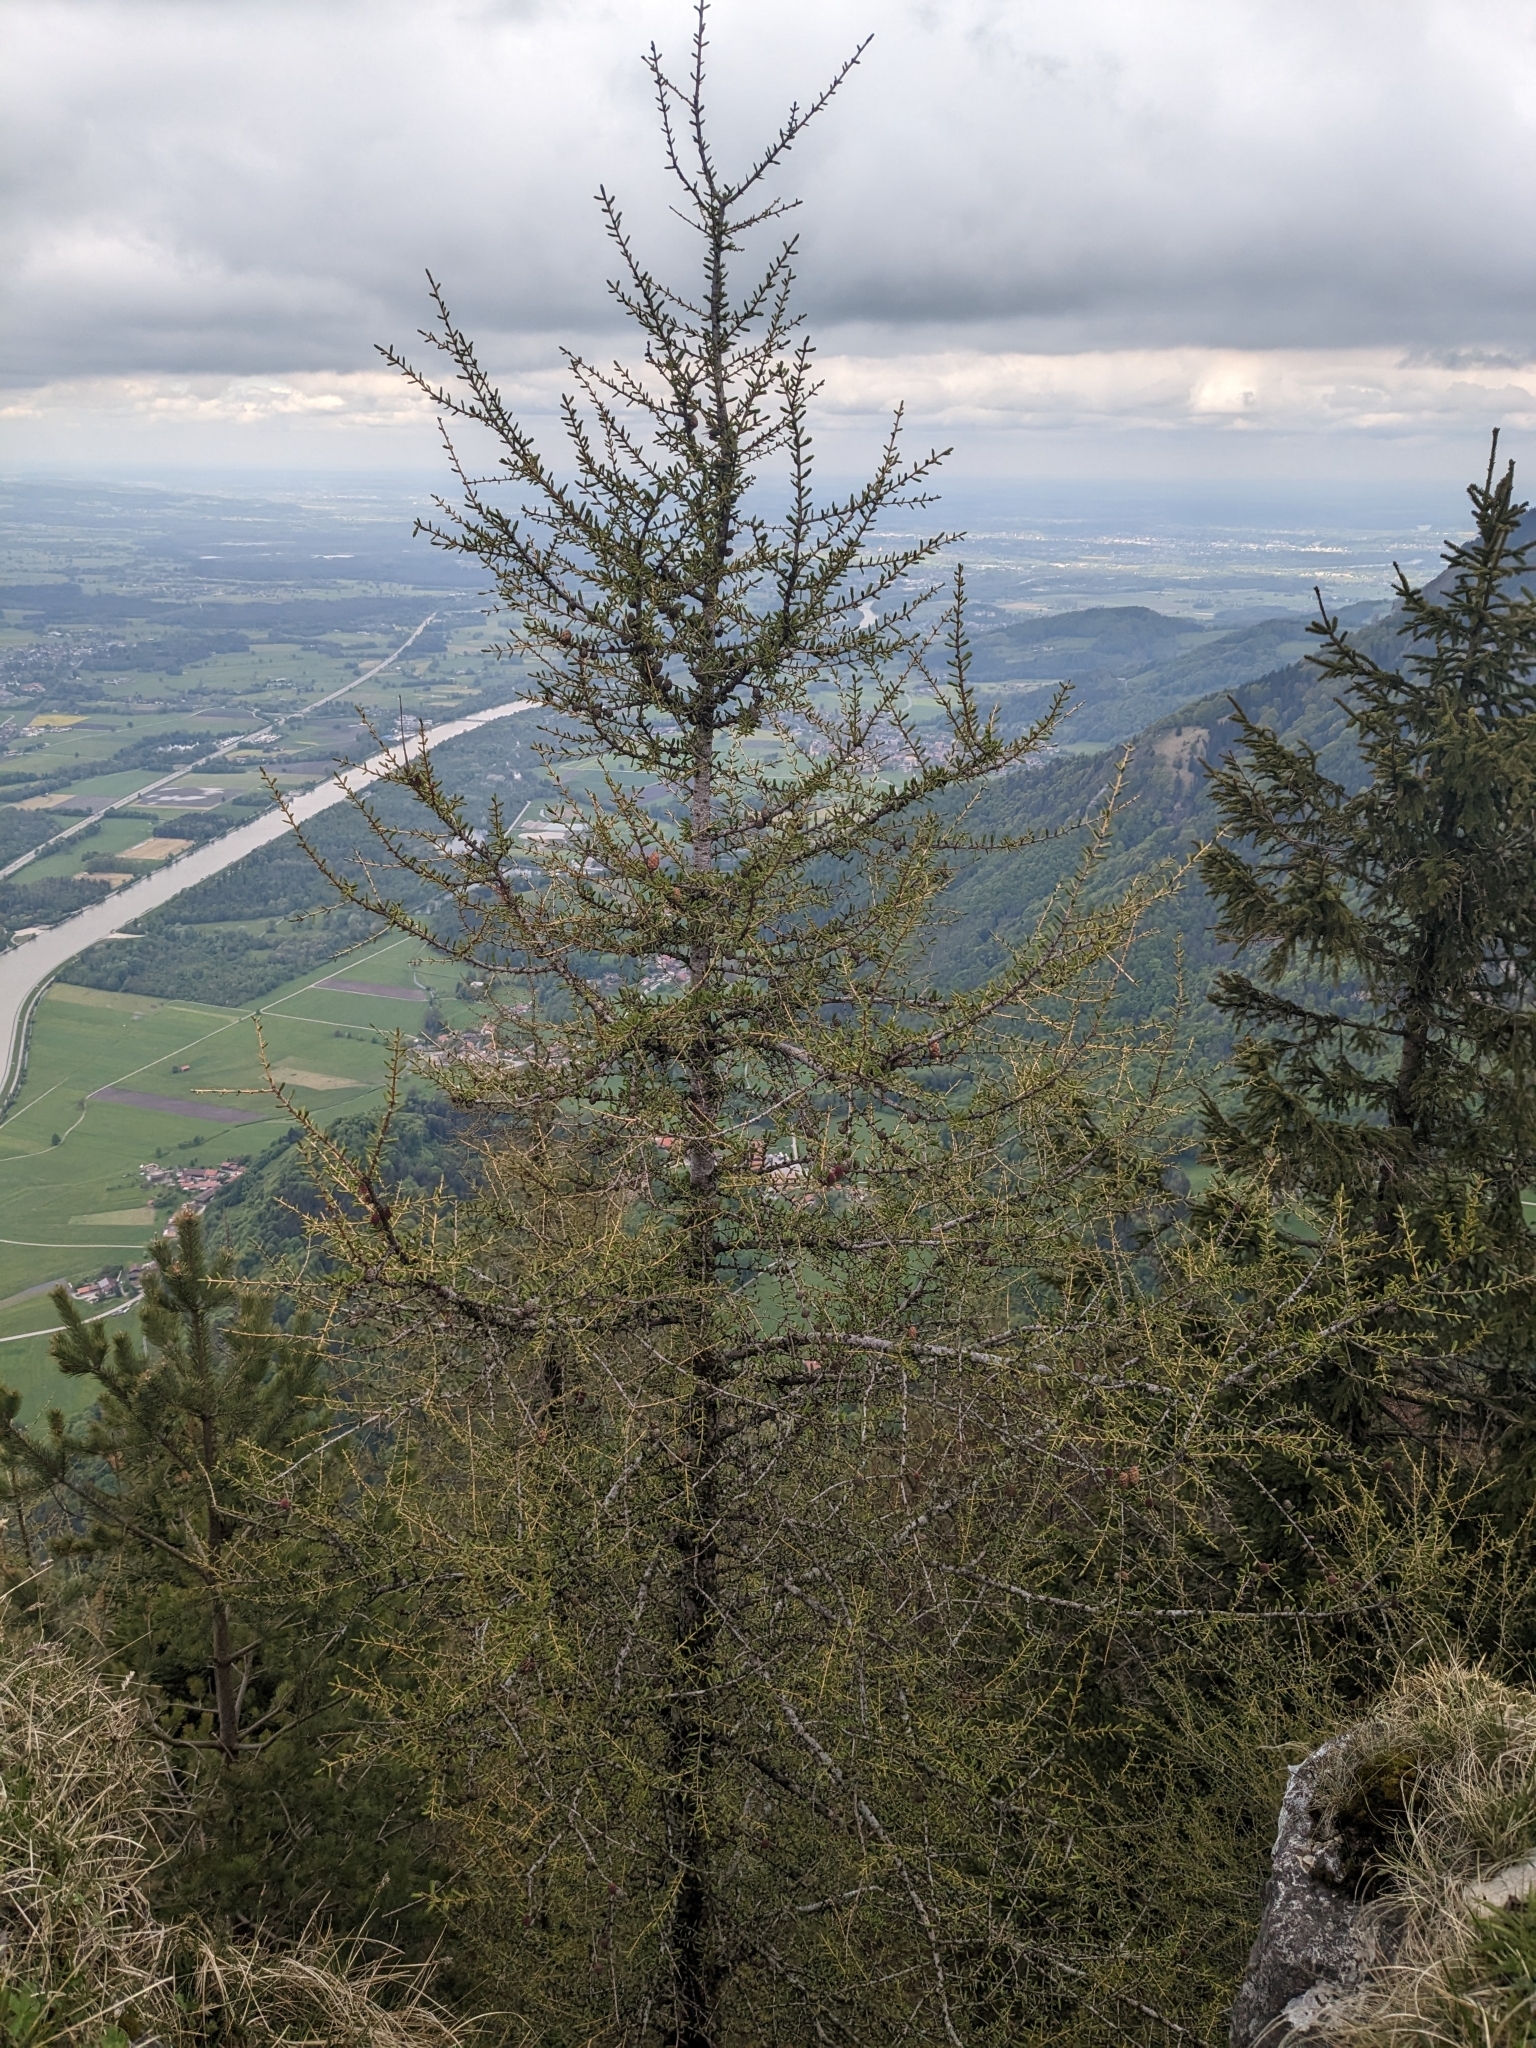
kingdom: Plantae
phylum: Tracheophyta
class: Pinopsida
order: Pinales
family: Pinaceae
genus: Larix
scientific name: Larix decidua
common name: European larch
